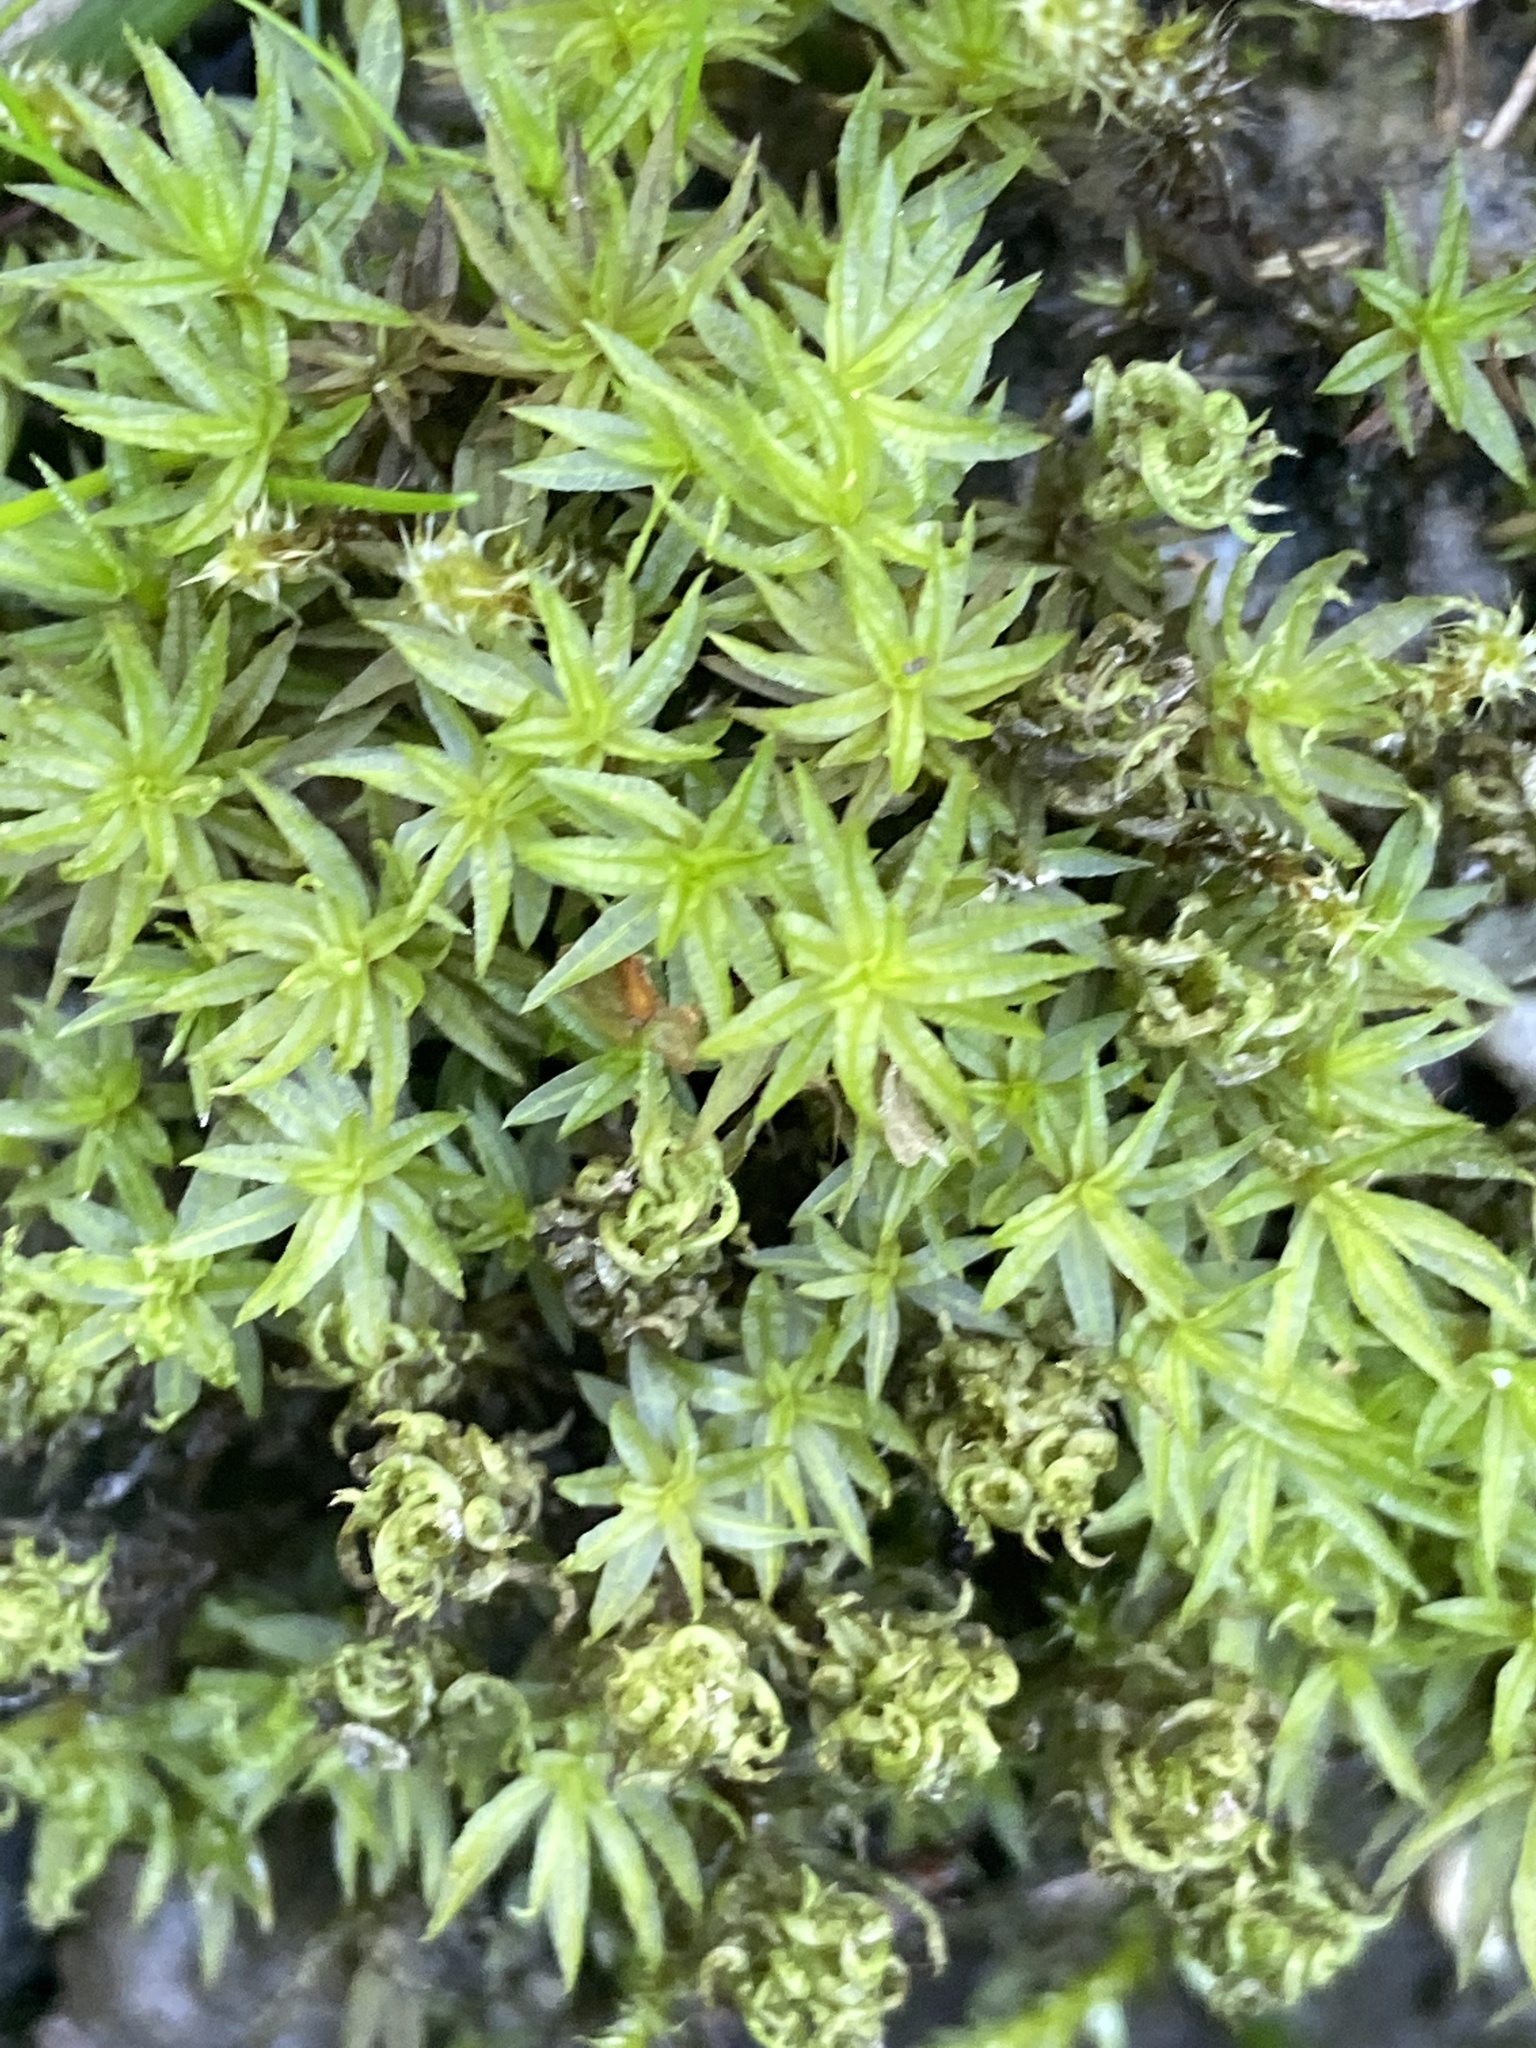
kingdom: Plantae
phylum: Bryophyta
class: Polytrichopsida
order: Polytrichales
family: Polytrichaceae
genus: Atrichum
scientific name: Atrichum undulatum
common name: Common smoothcap
